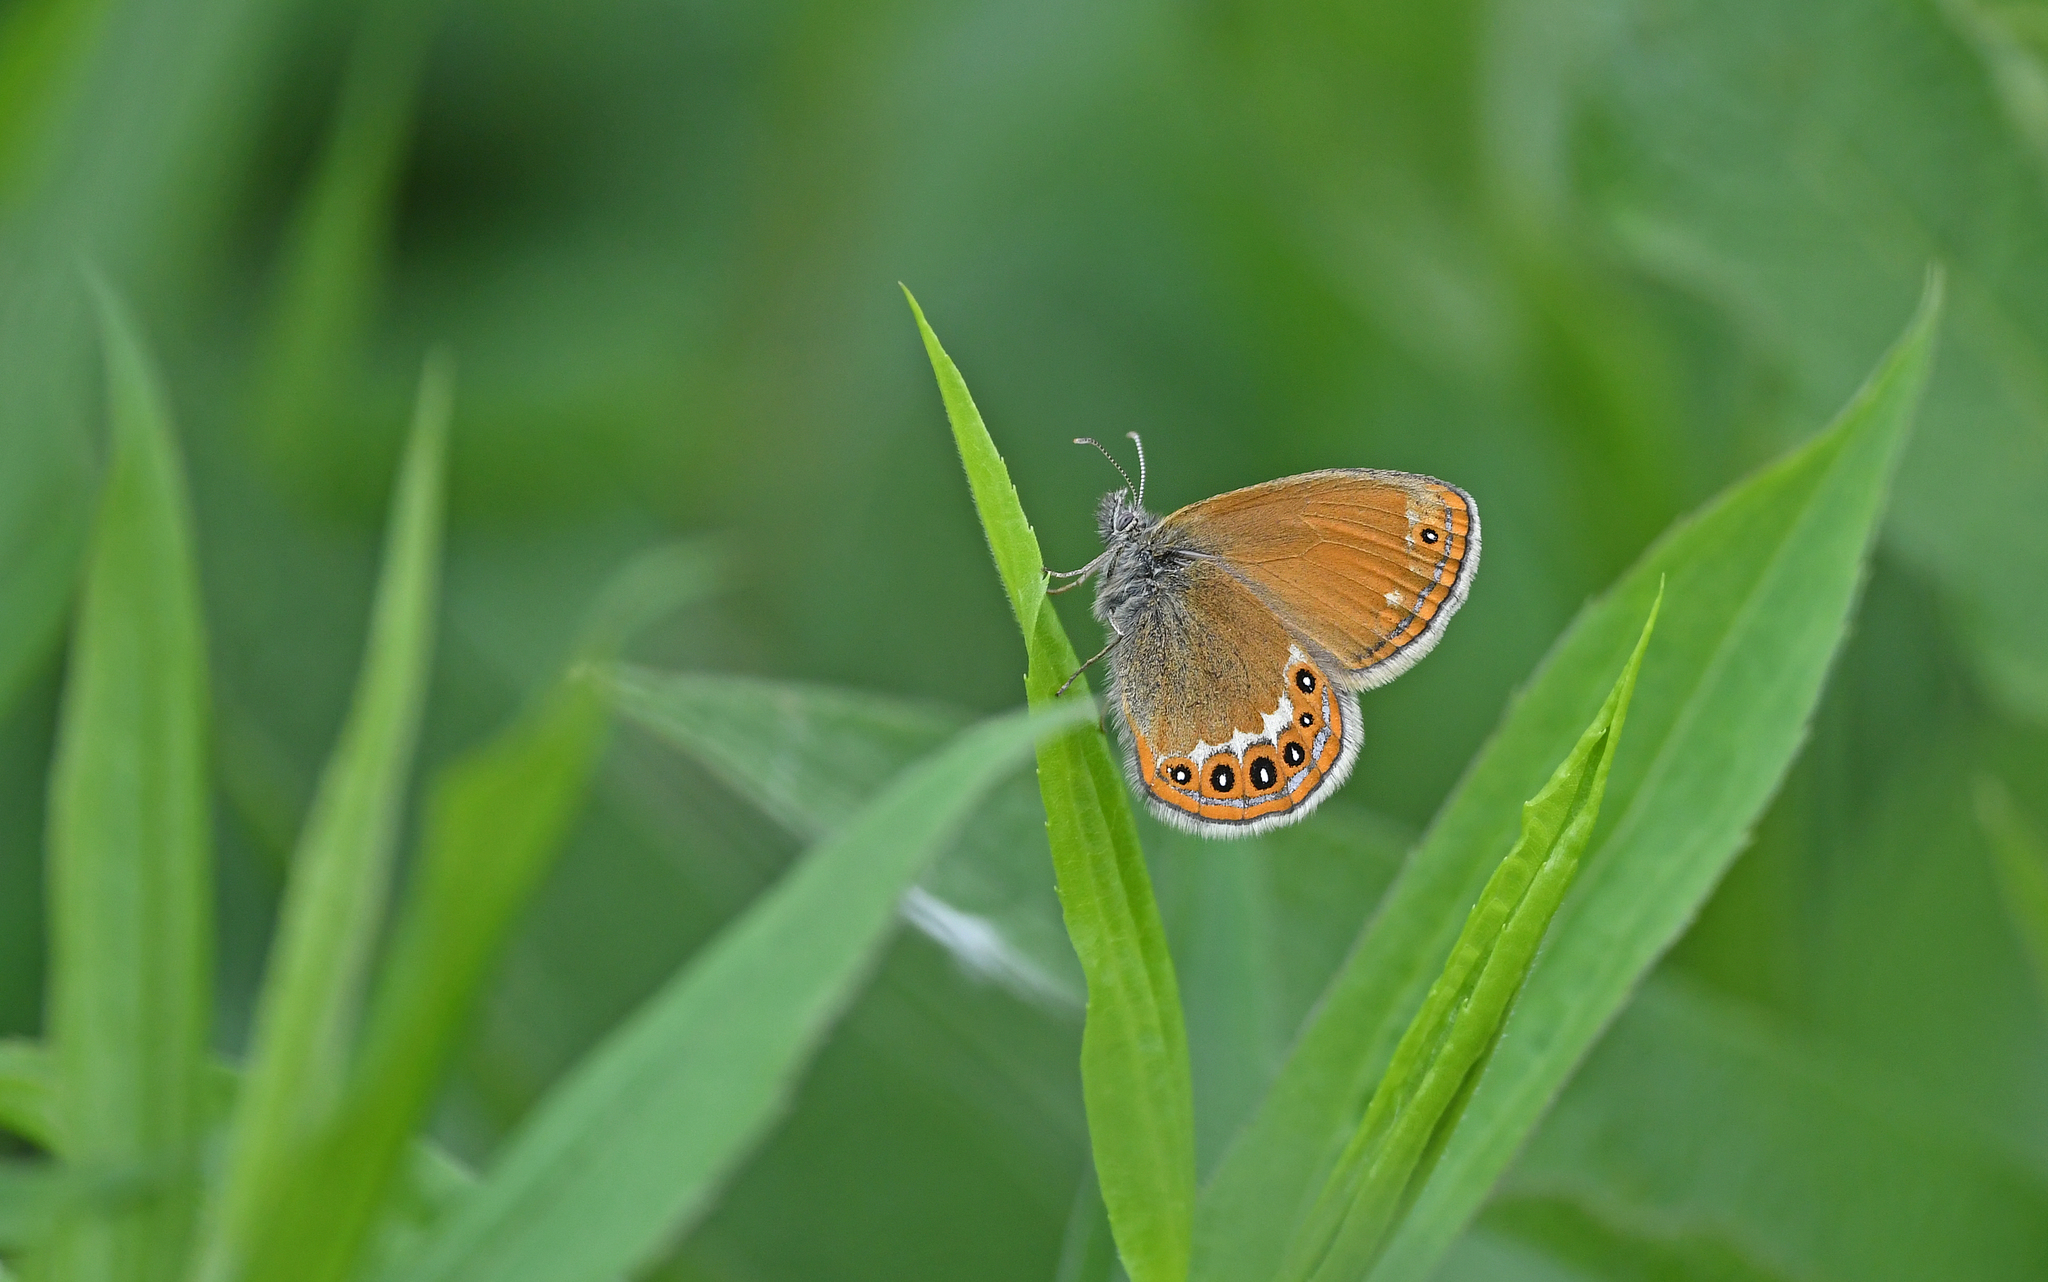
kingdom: Animalia
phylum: Arthropoda
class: Insecta
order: Lepidoptera
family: Nymphalidae
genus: Coenonympha
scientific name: Coenonympha hero
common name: Scarce heath
